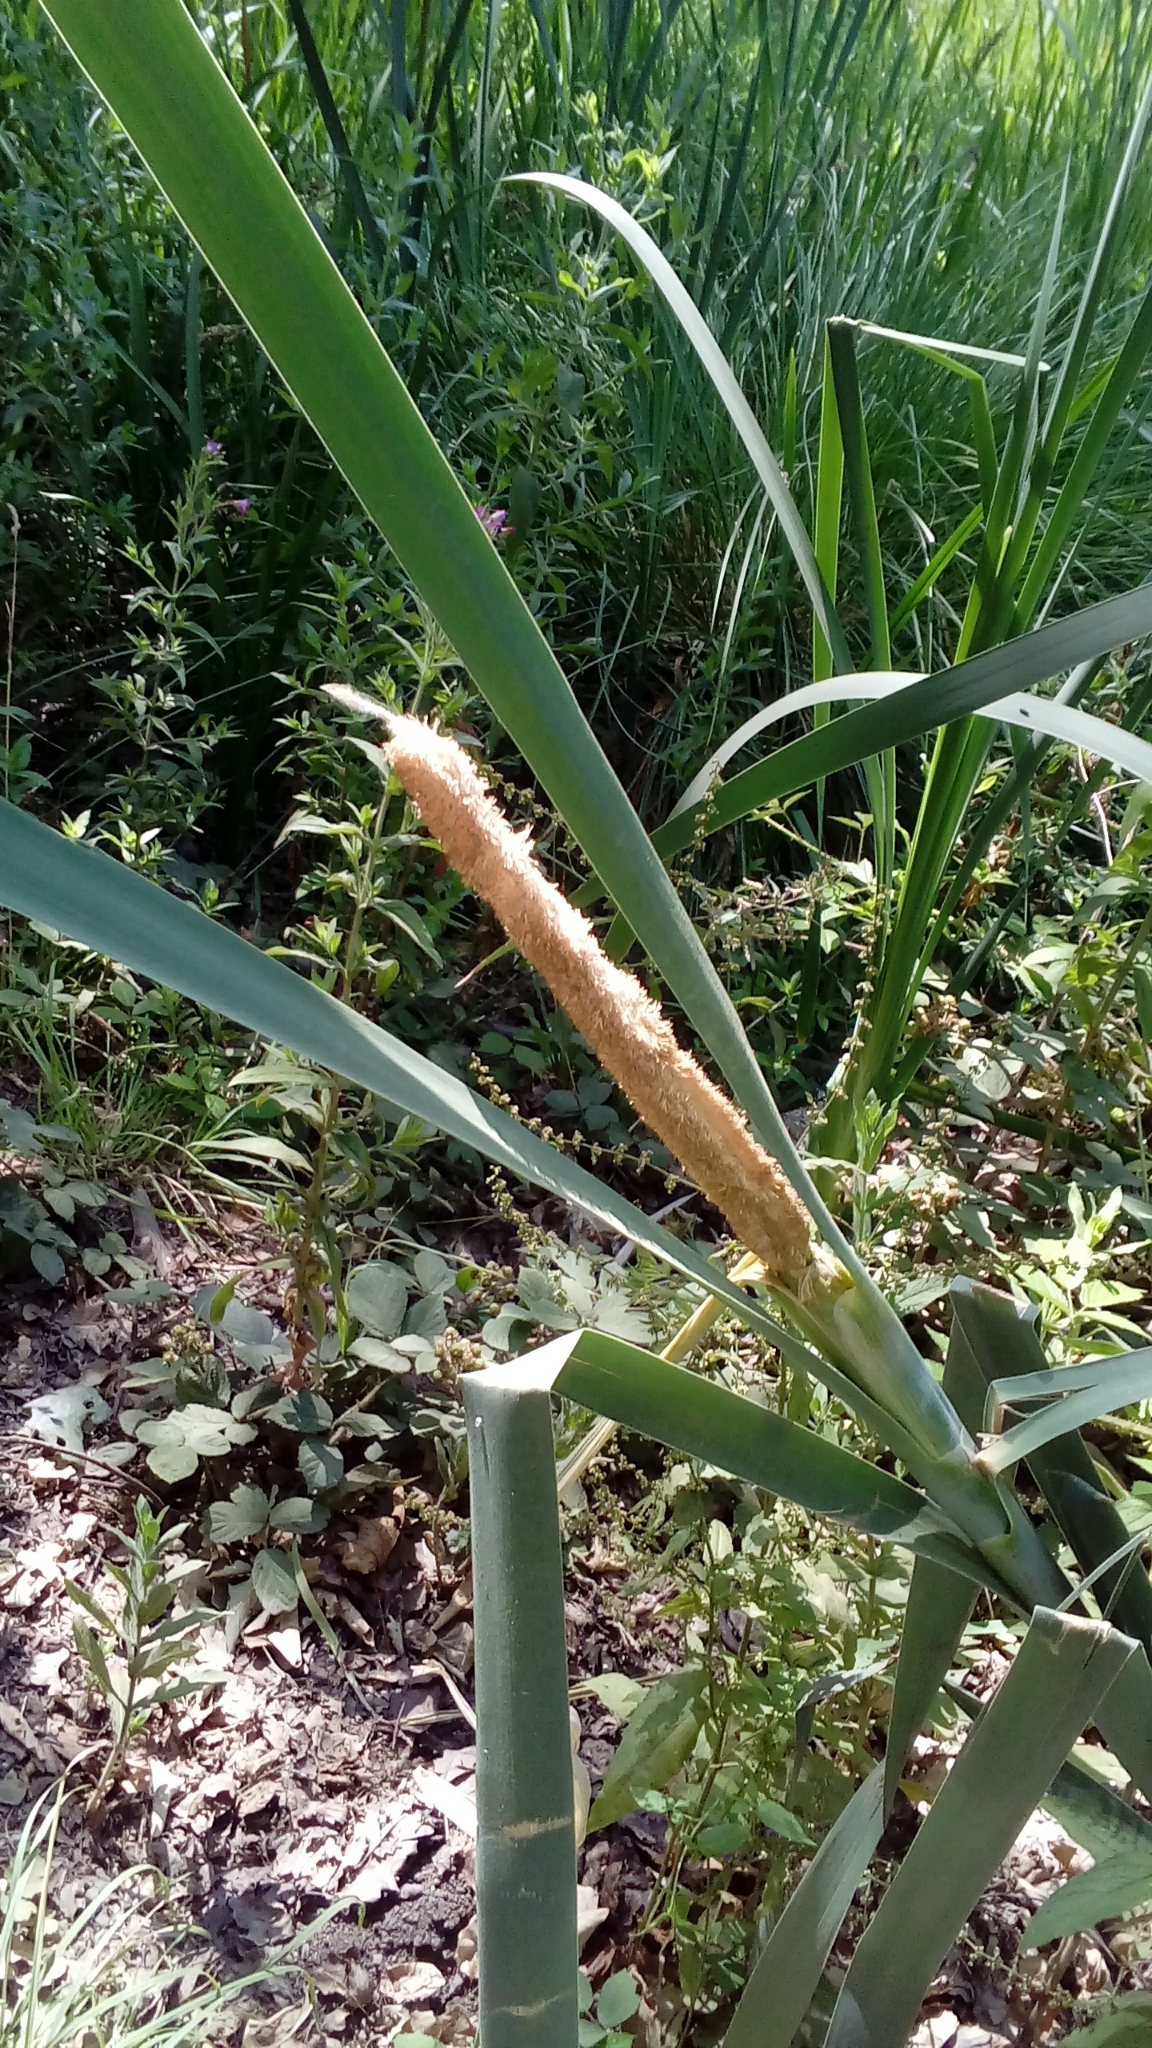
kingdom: Plantae
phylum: Tracheophyta
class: Liliopsida
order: Poales
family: Typhaceae
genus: Typha
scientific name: Typha latifolia
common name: Broadleaf cattail
